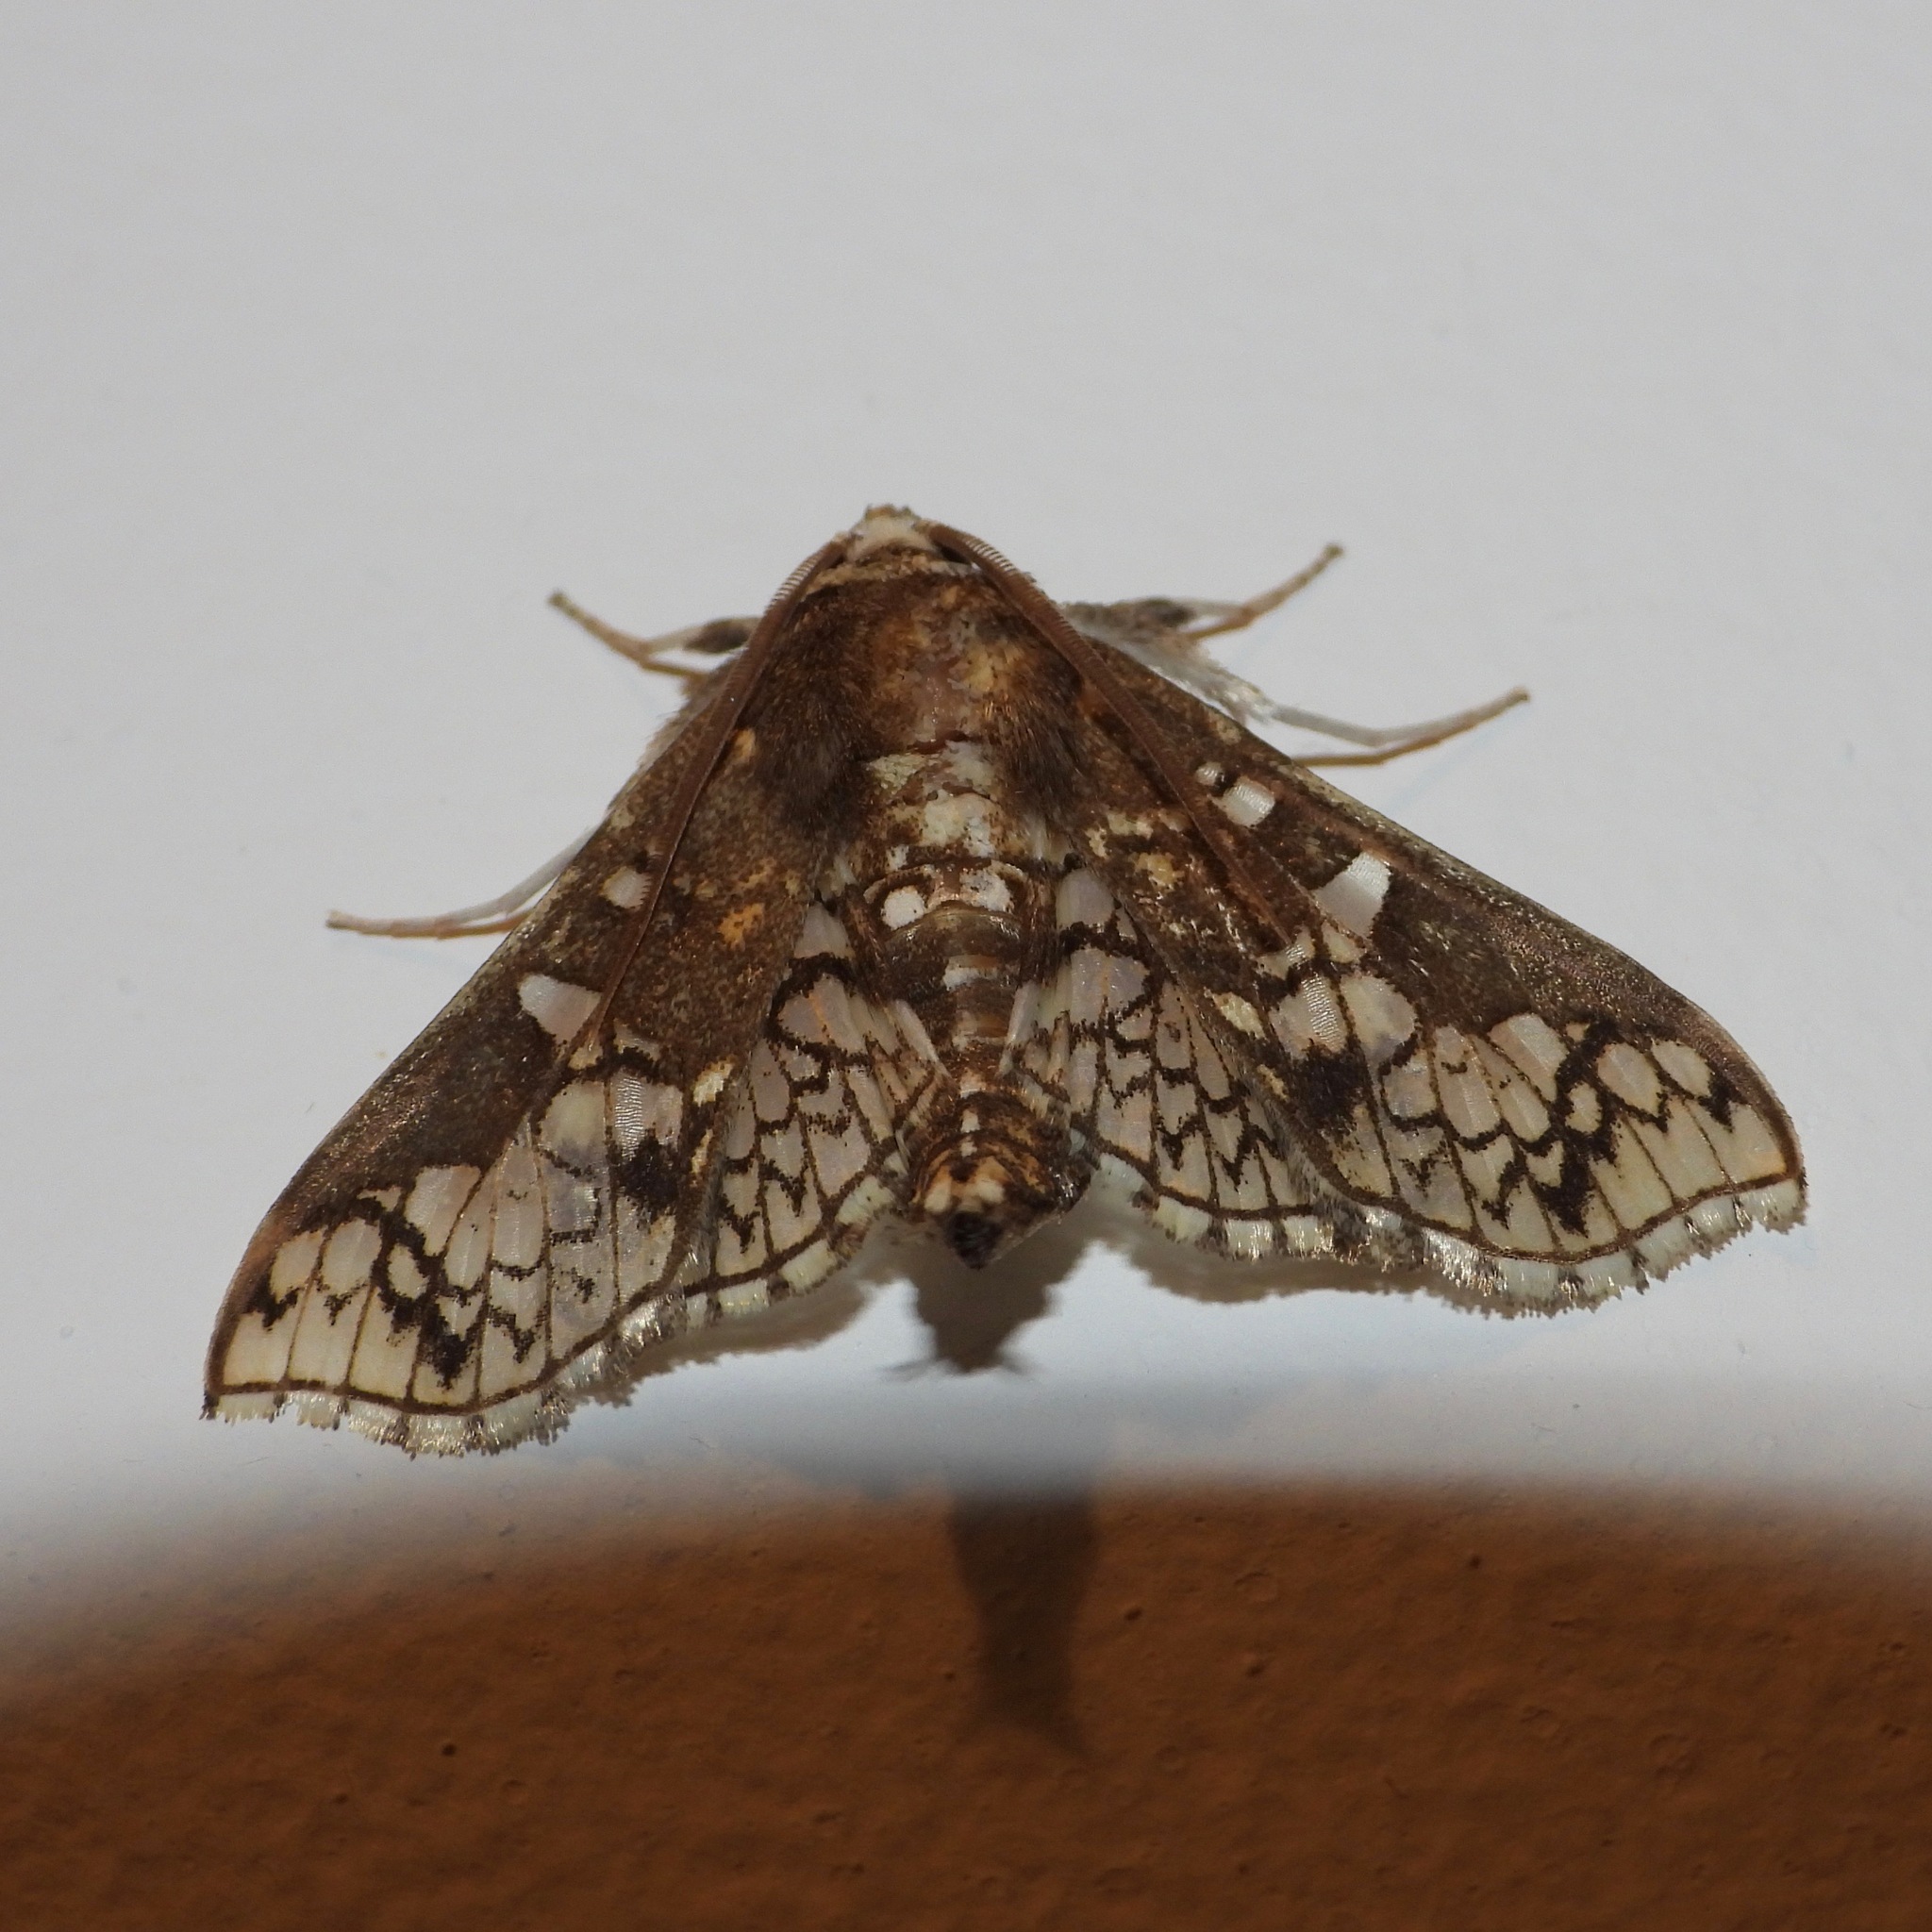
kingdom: Animalia
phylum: Arthropoda
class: Insecta
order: Lepidoptera
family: Crambidae
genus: Megastes
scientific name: Megastes praxiteles
